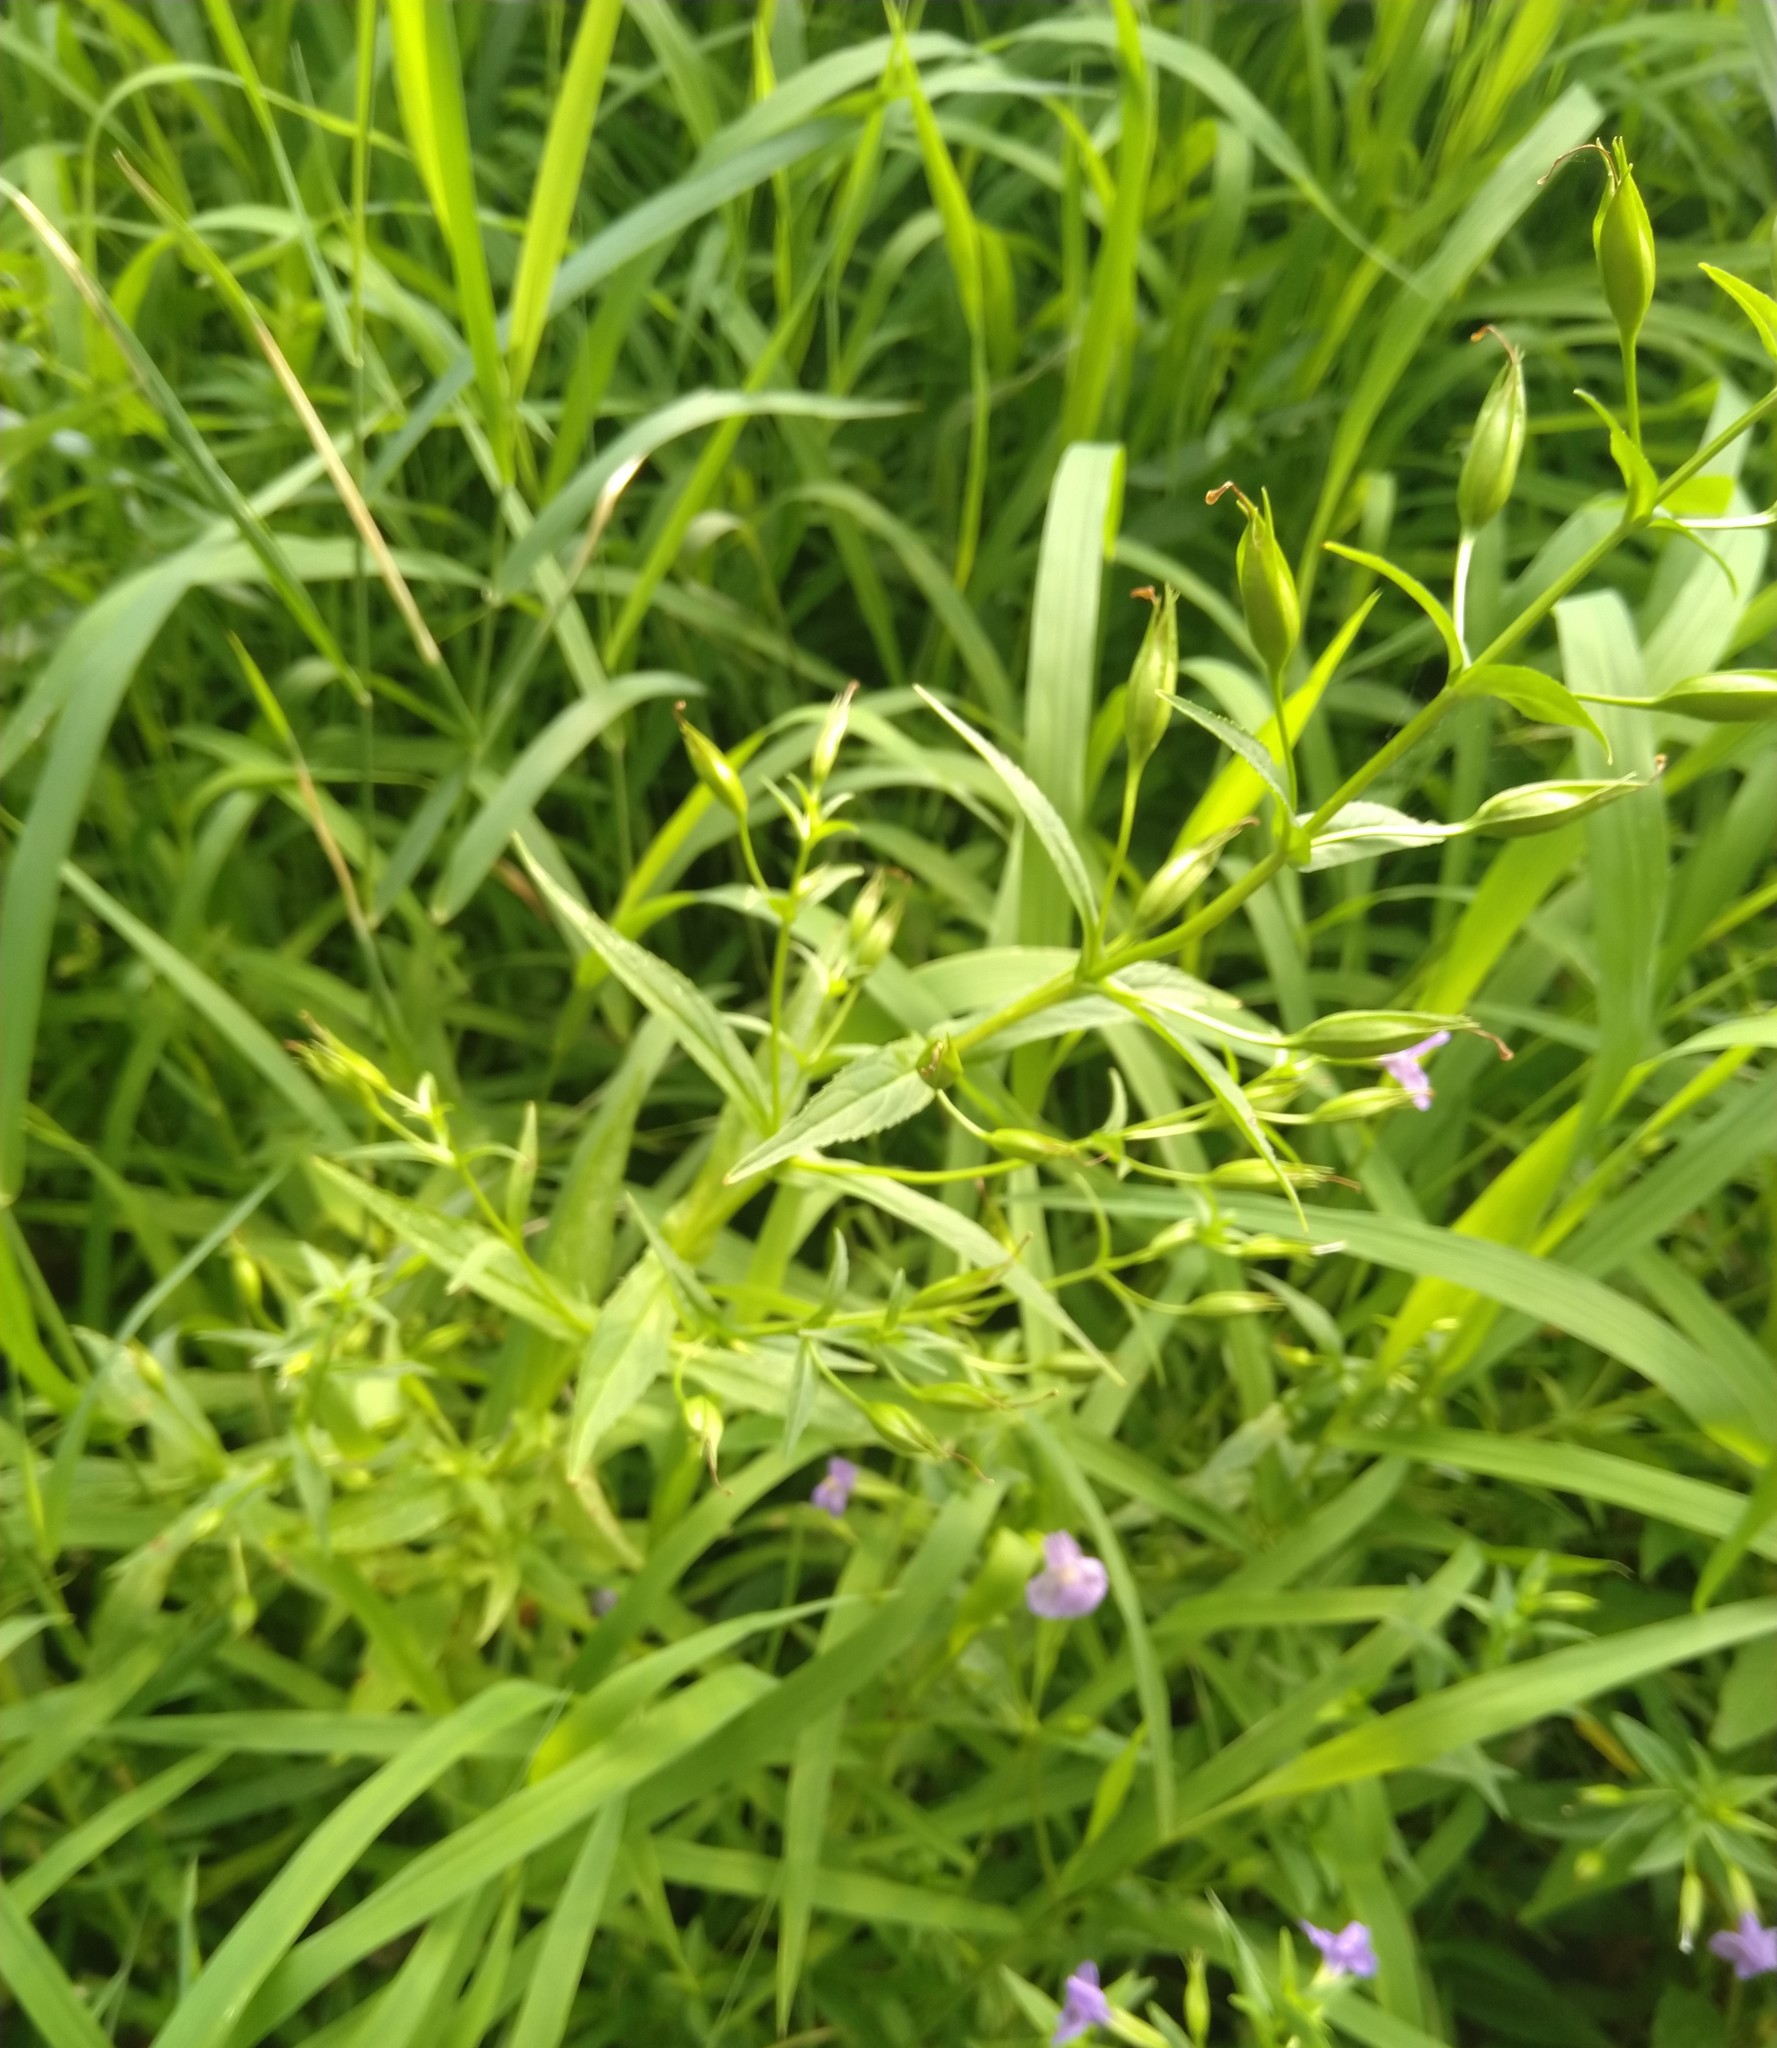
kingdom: Plantae
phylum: Tracheophyta
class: Magnoliopsida
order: Lamiales
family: Phrymaceae
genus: Mimulus
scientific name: Mimulus ringens
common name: Allegheny monkeyflower
